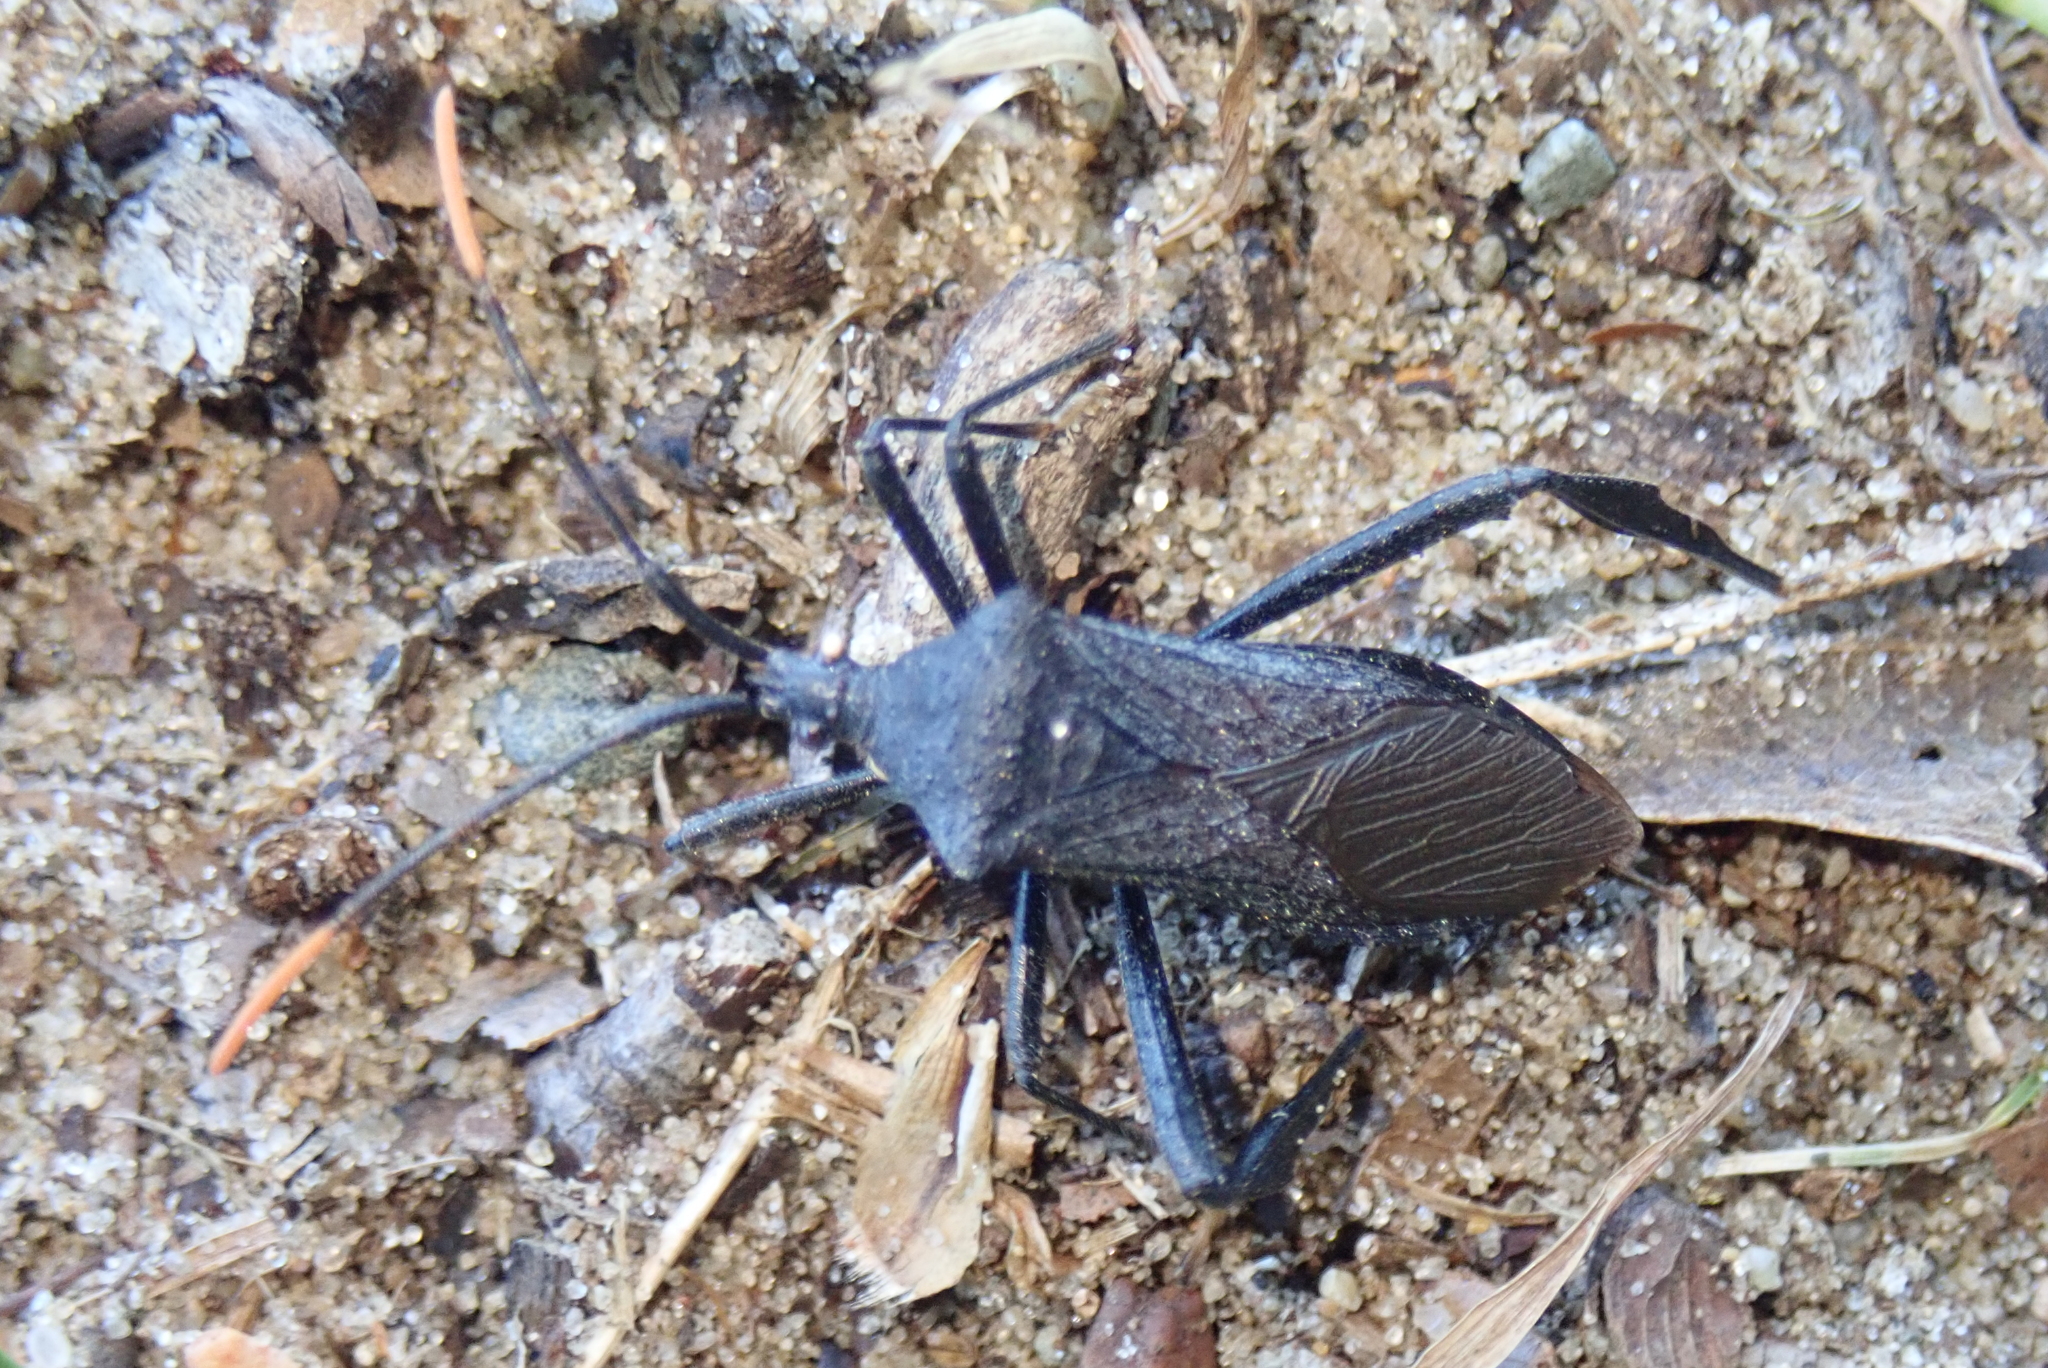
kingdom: Animalia
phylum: Arthropoda
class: Insecta
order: Hemiptera
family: Coreidae
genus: Acanthocephala
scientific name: Acanthocephala terminalis
